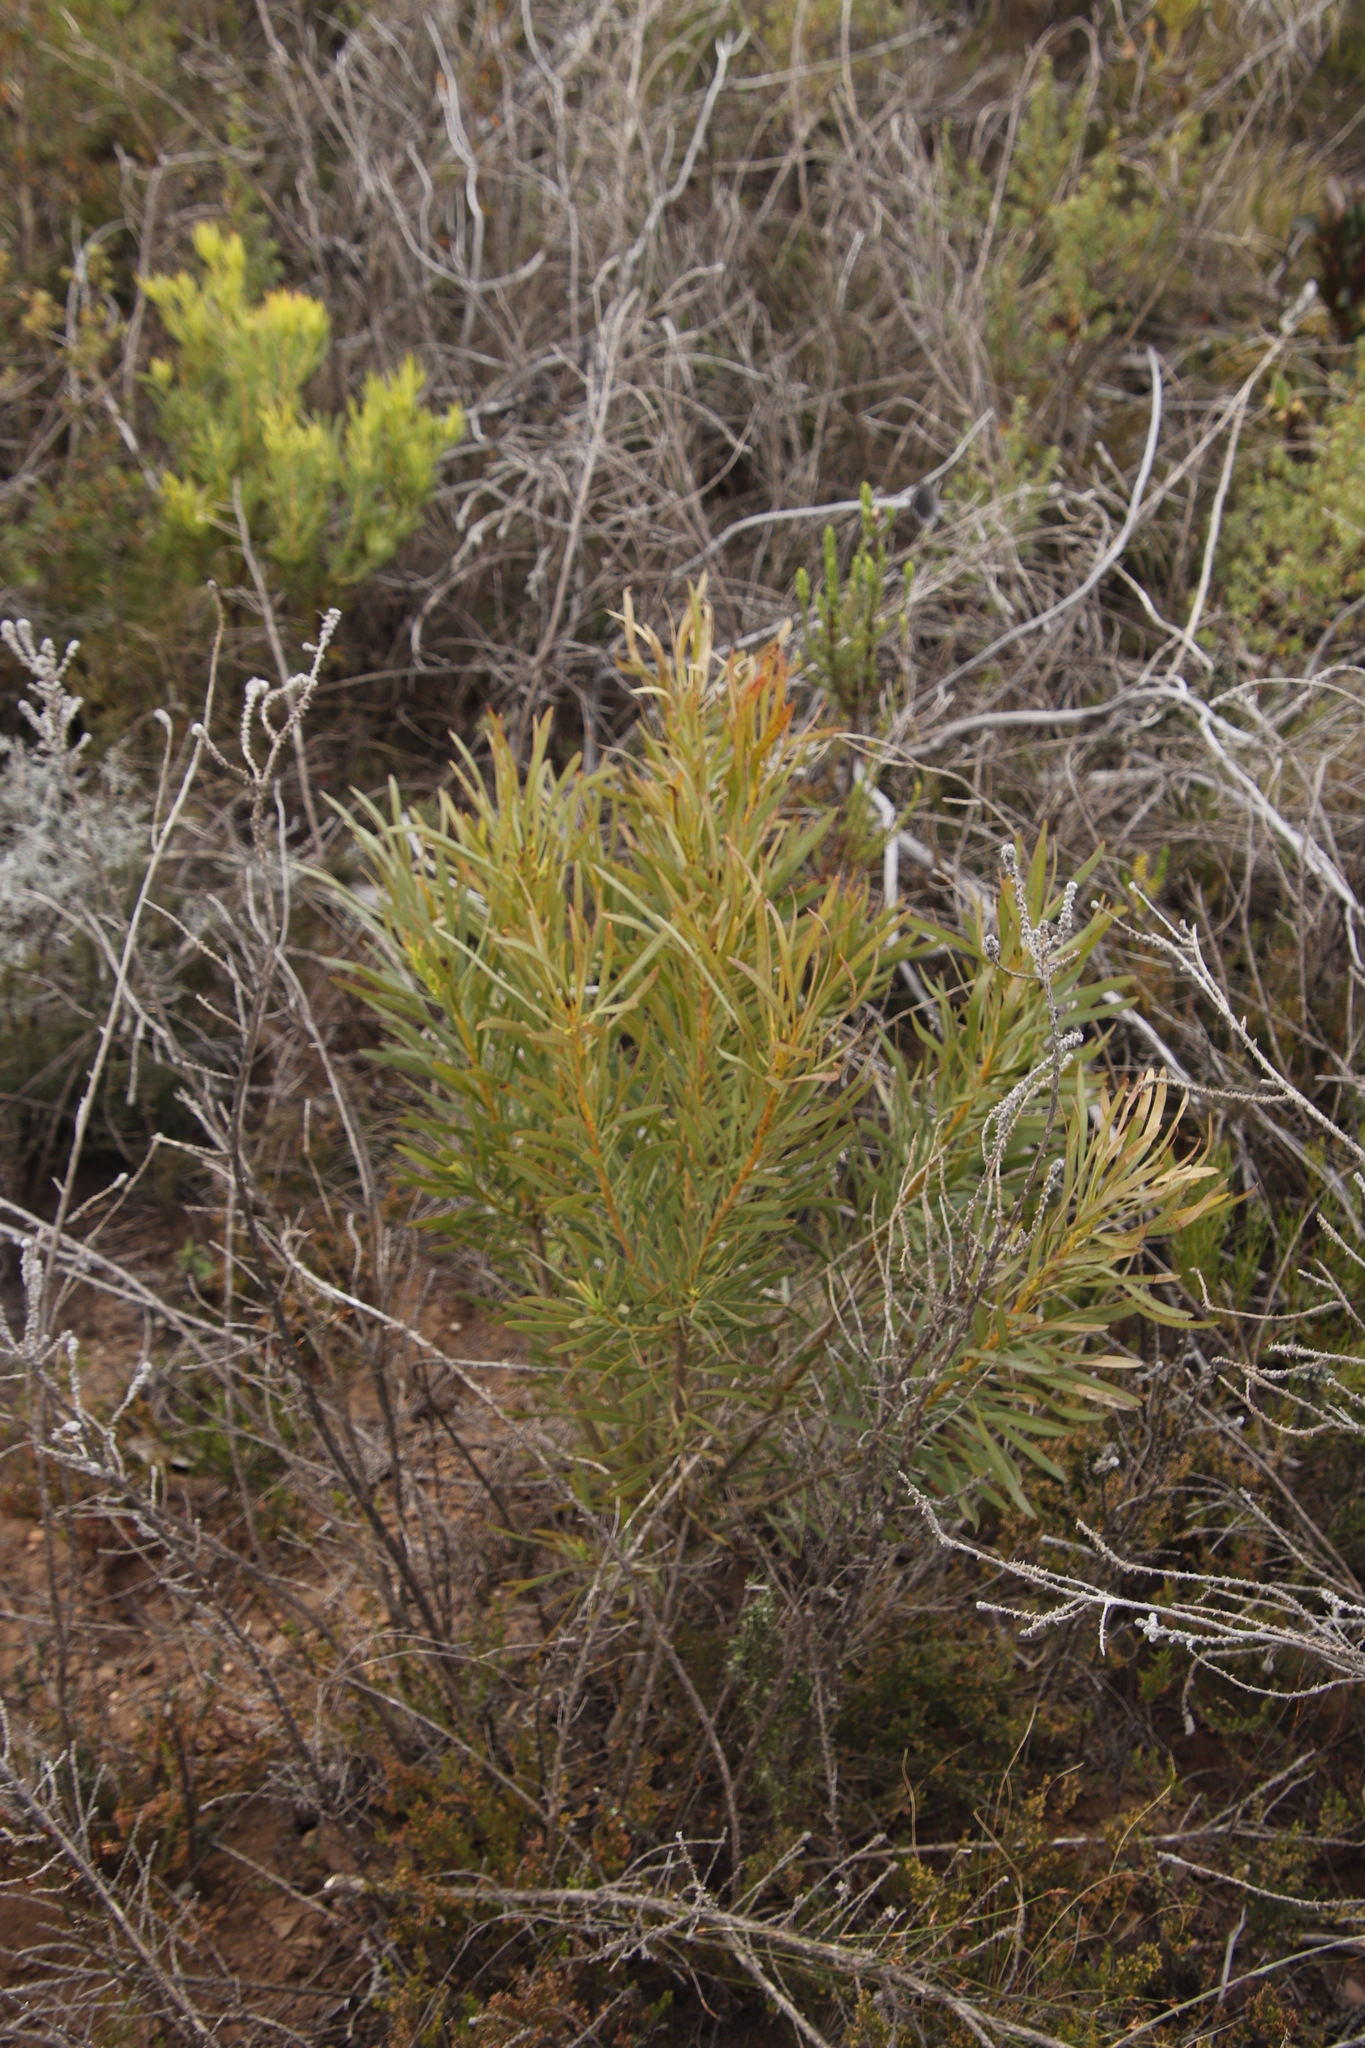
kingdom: Plantae
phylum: Tracheophyta
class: Magnoliopsida
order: Proteales
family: Proteaceae
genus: Protea
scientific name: Protea repens
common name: Sugarbush
